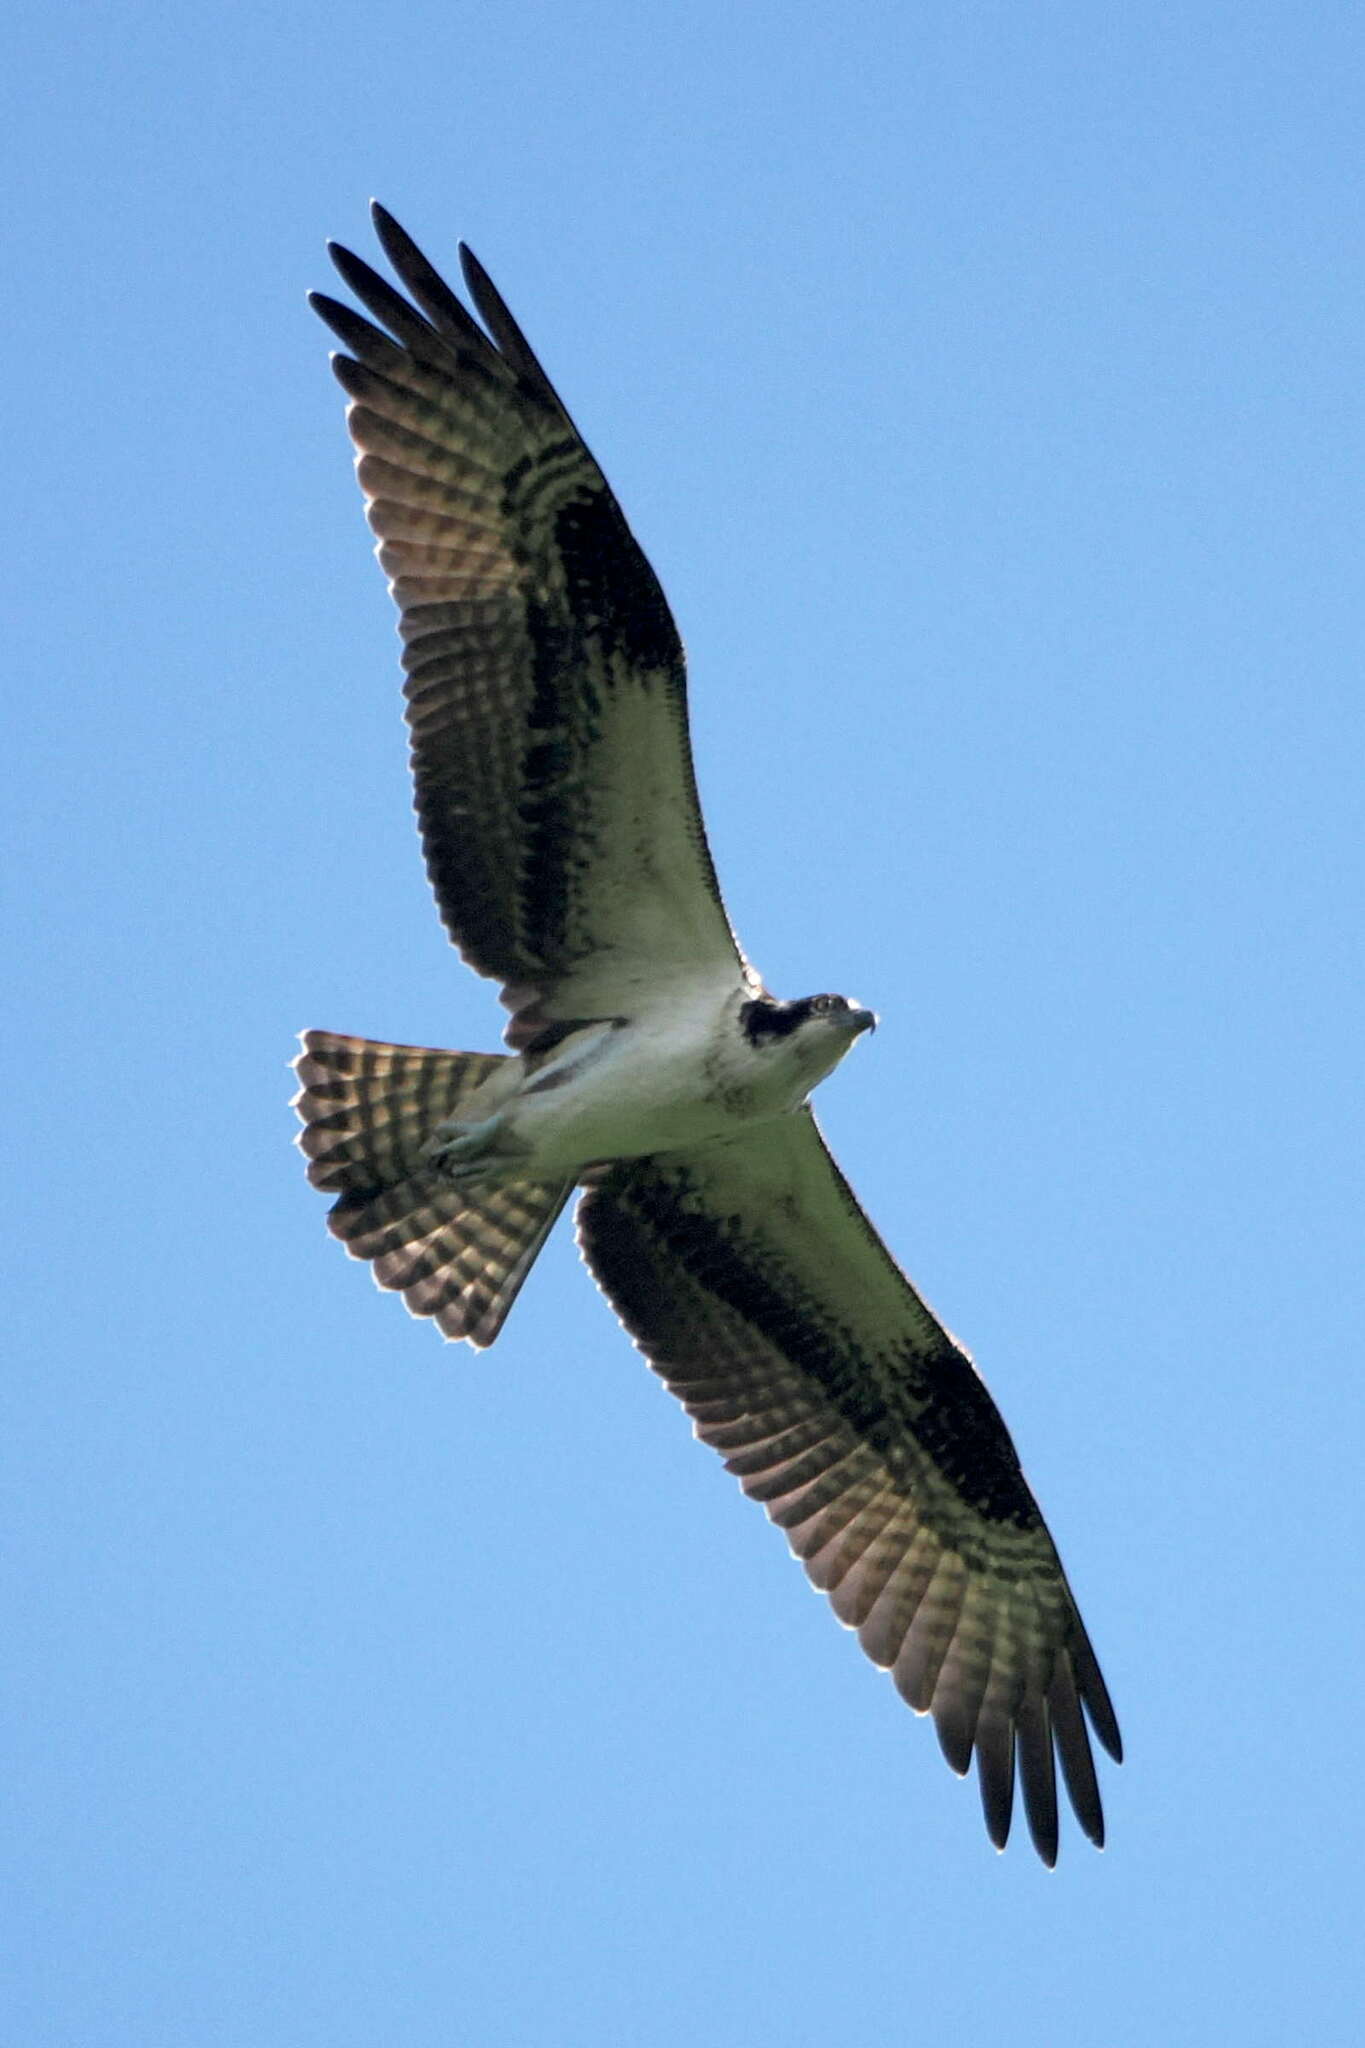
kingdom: Animalia
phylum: Chordata
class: Aves
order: Accipitriformes
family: Pandionidae
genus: Pandion
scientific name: Pandion haliaetus
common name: Osprey
